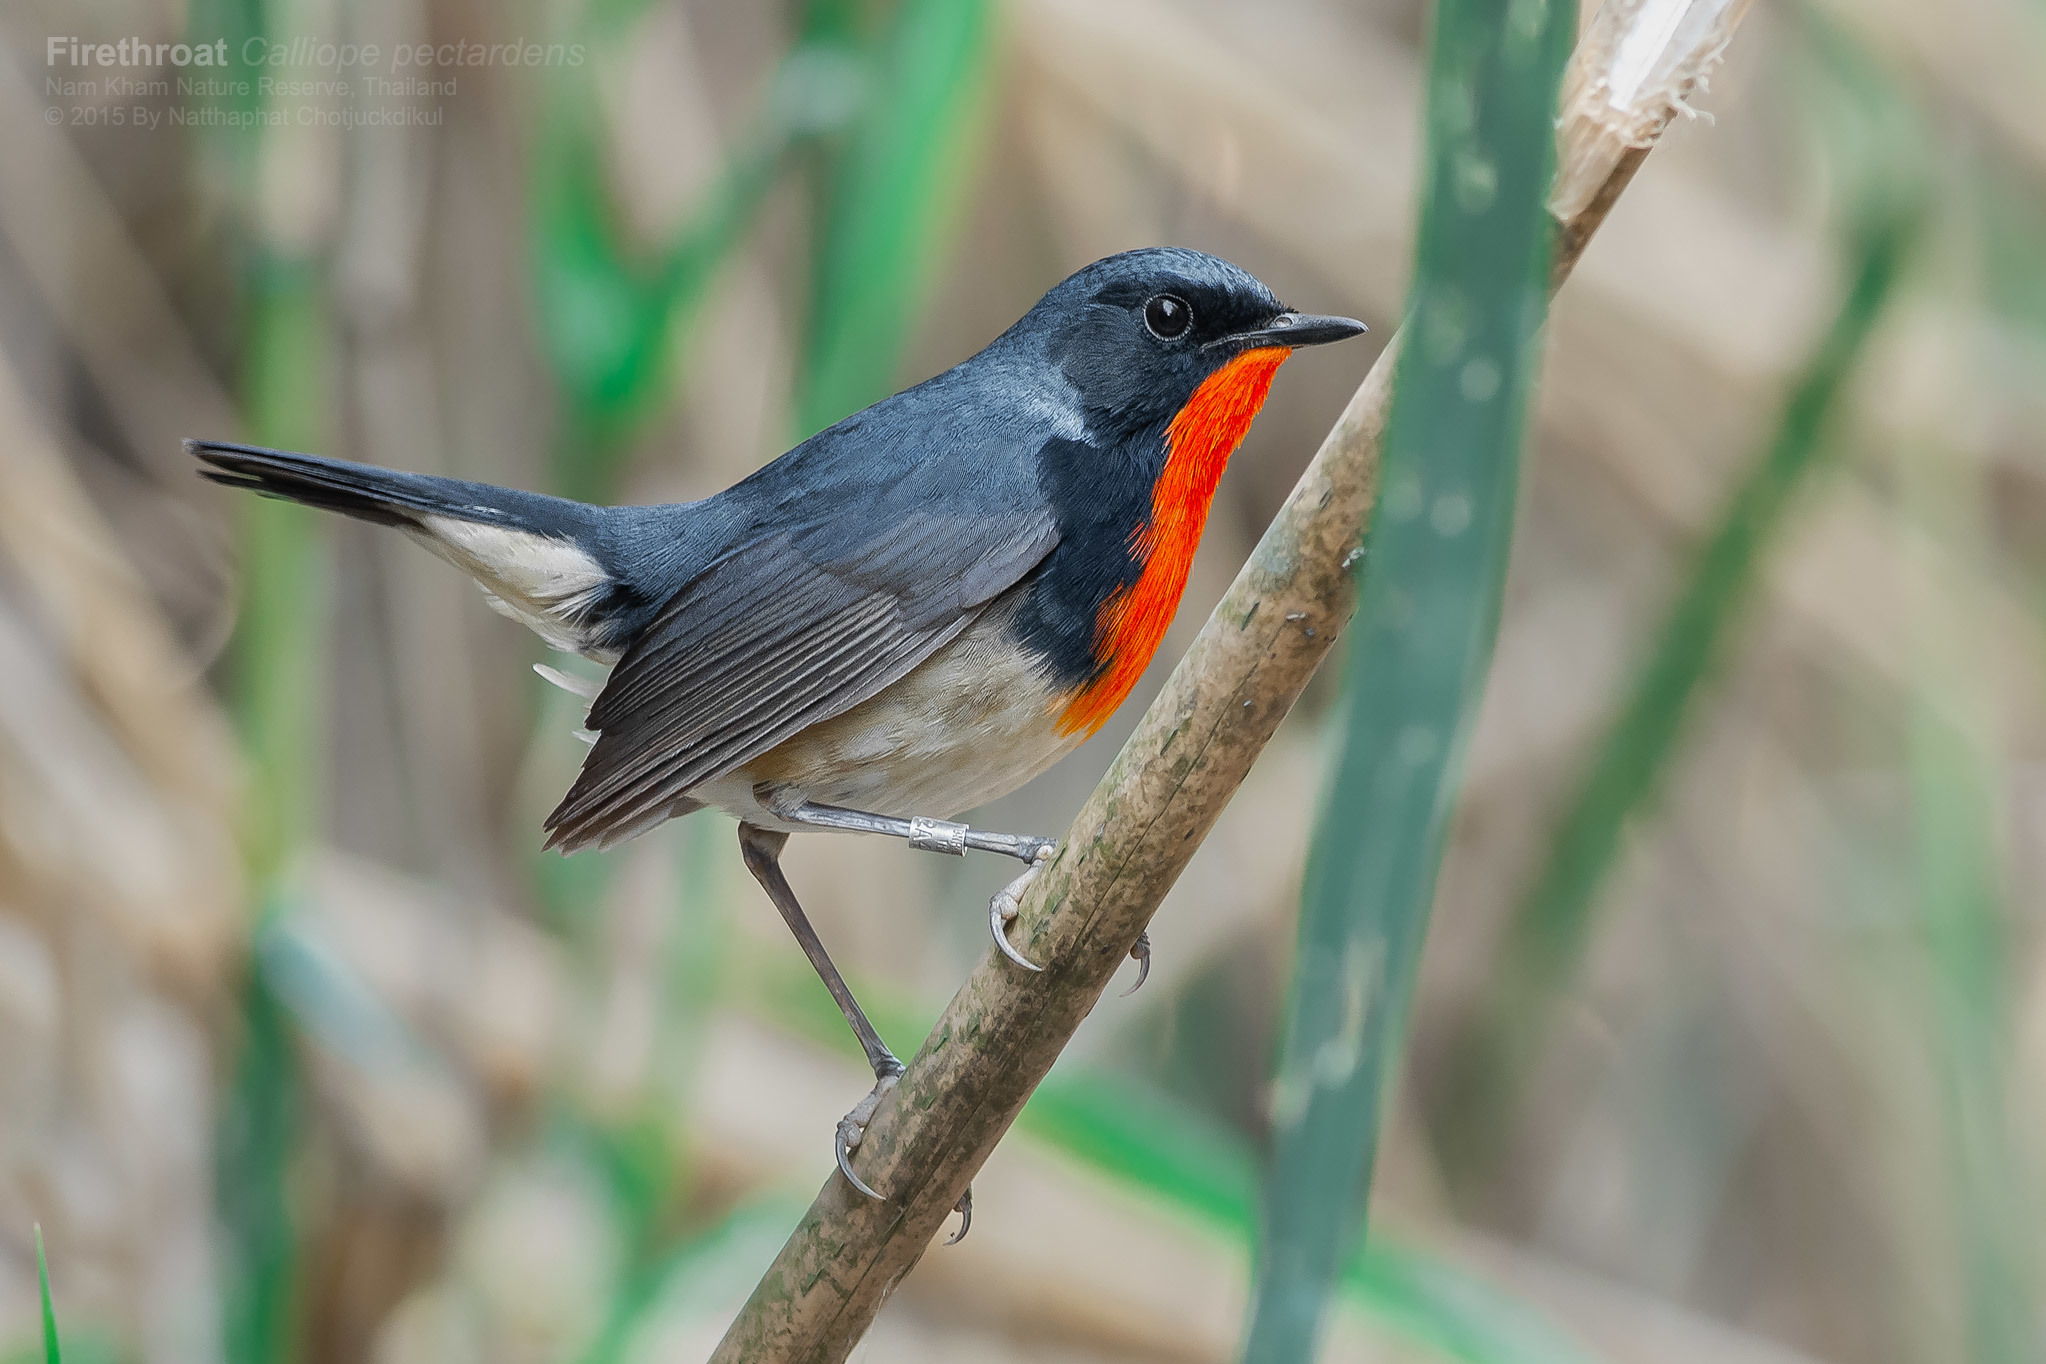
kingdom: Animalia
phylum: Chordata
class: Aves
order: Passeriformes
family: Muscicapidae
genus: Luscinia
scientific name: Luscinia pectardens
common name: Firethroat
